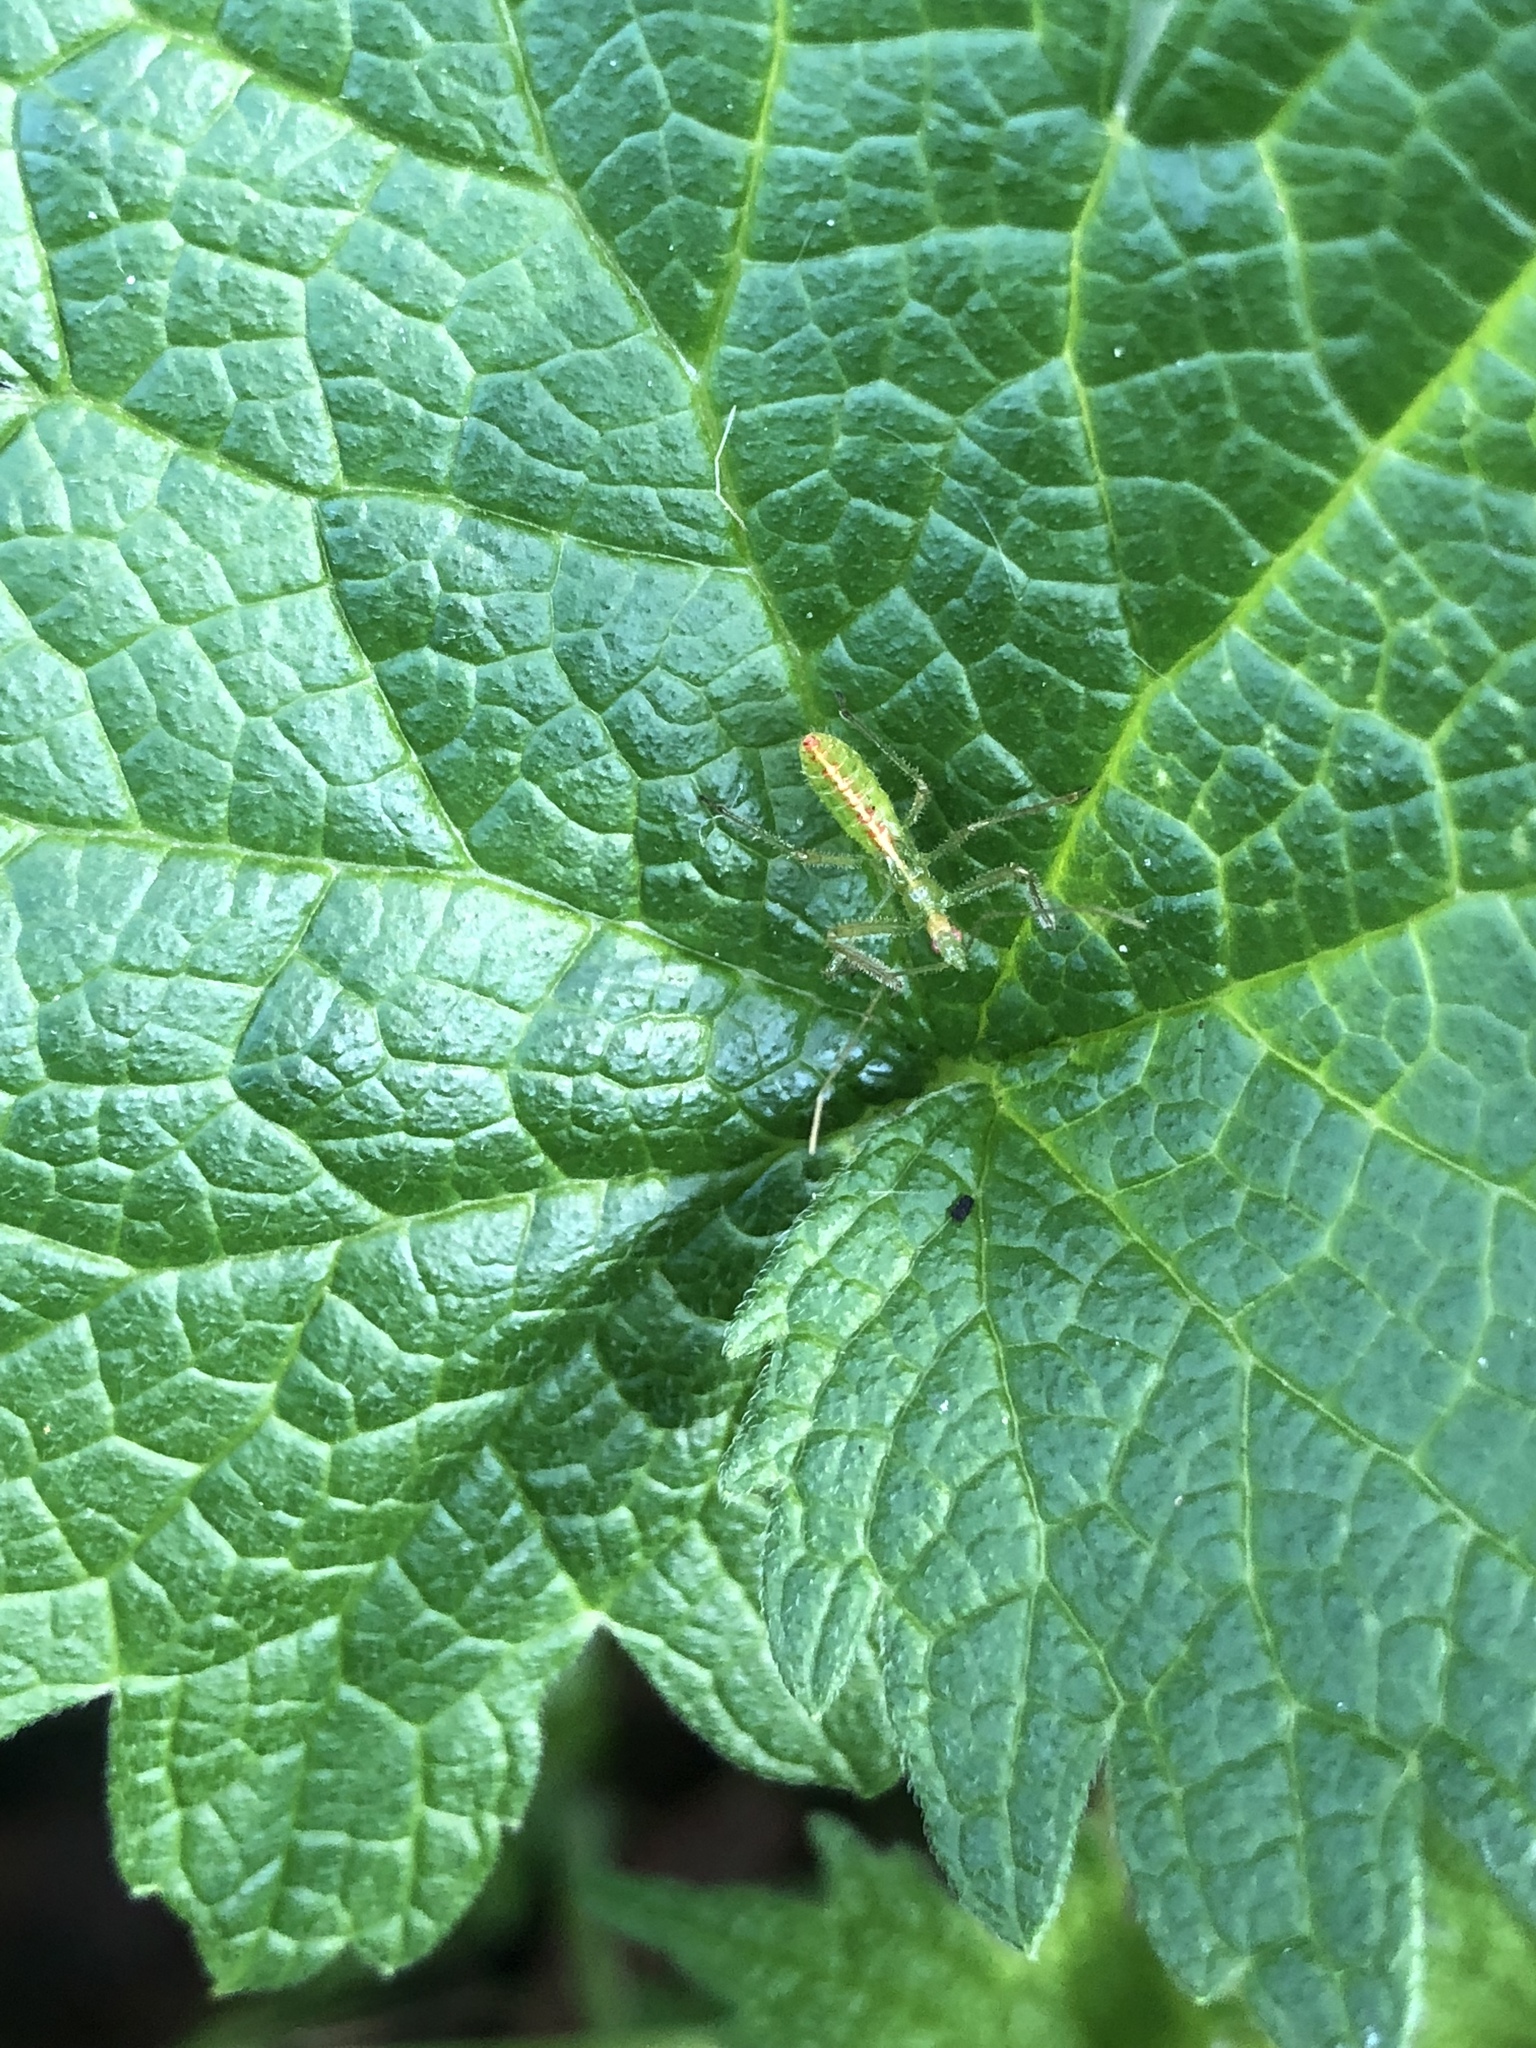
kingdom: Animalia
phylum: Arthropoda
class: Insecta
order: Hemiptera
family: Reduviidae
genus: Zelus
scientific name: Zelus luridus
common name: Pale green assassin bug
